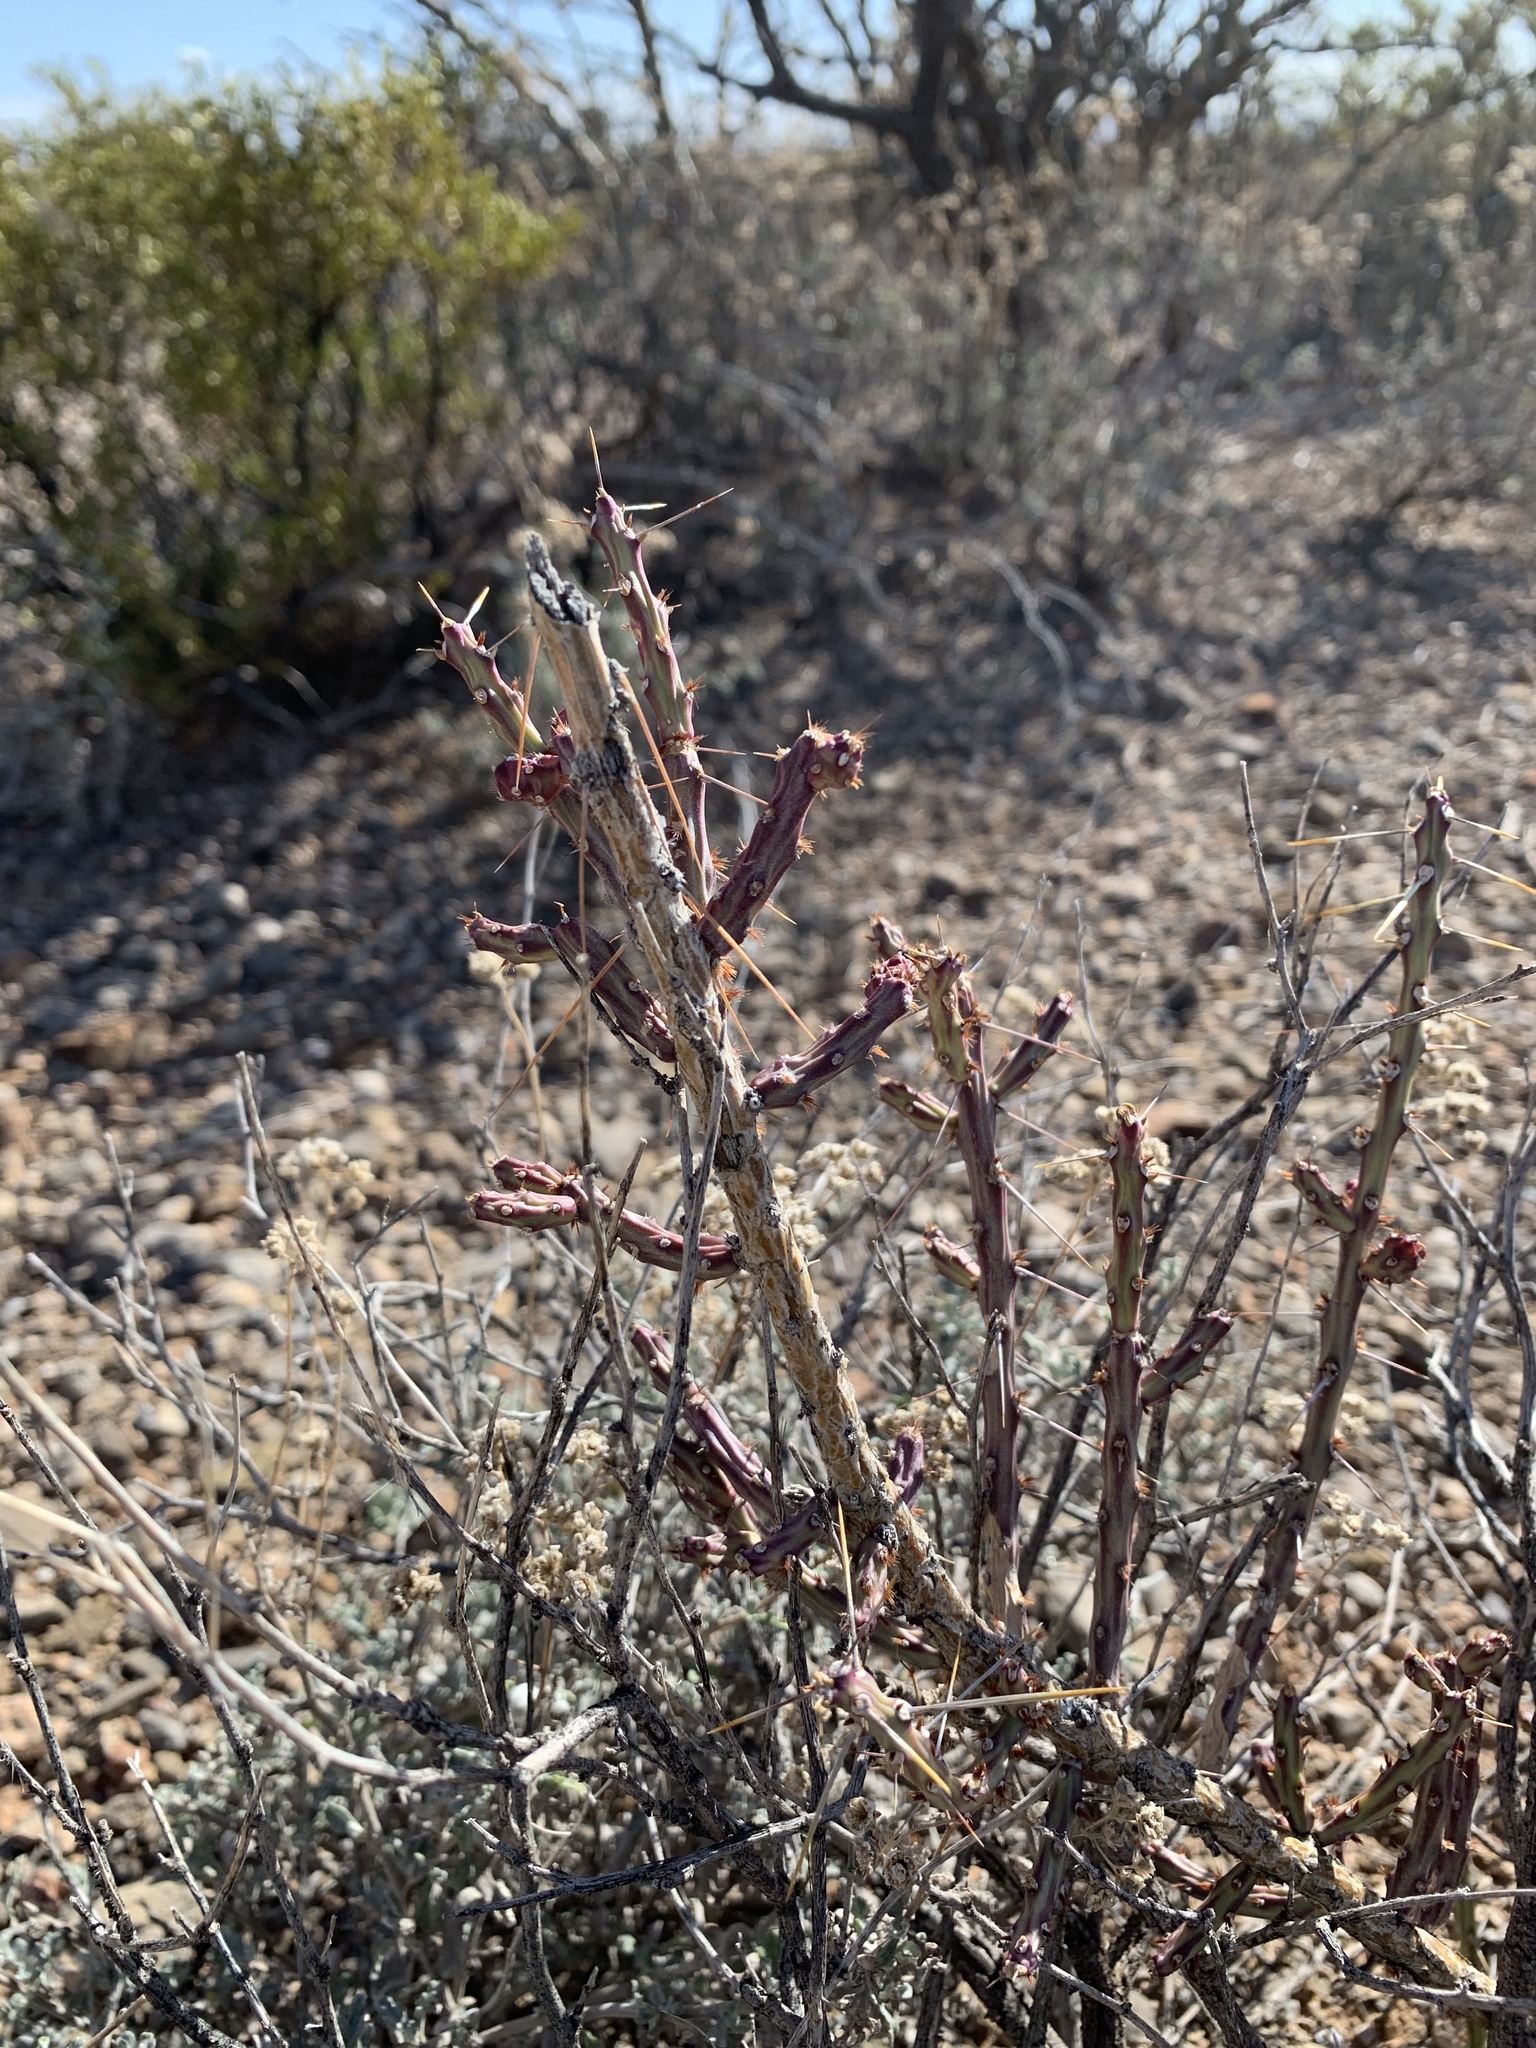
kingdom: Plantae
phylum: Tracheophyta
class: Magnoliopsida
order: Caryophyllales
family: Cactaceae
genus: Cylindropuntia
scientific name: Cylindropuntia leptocaulis
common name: Christmas cactus
